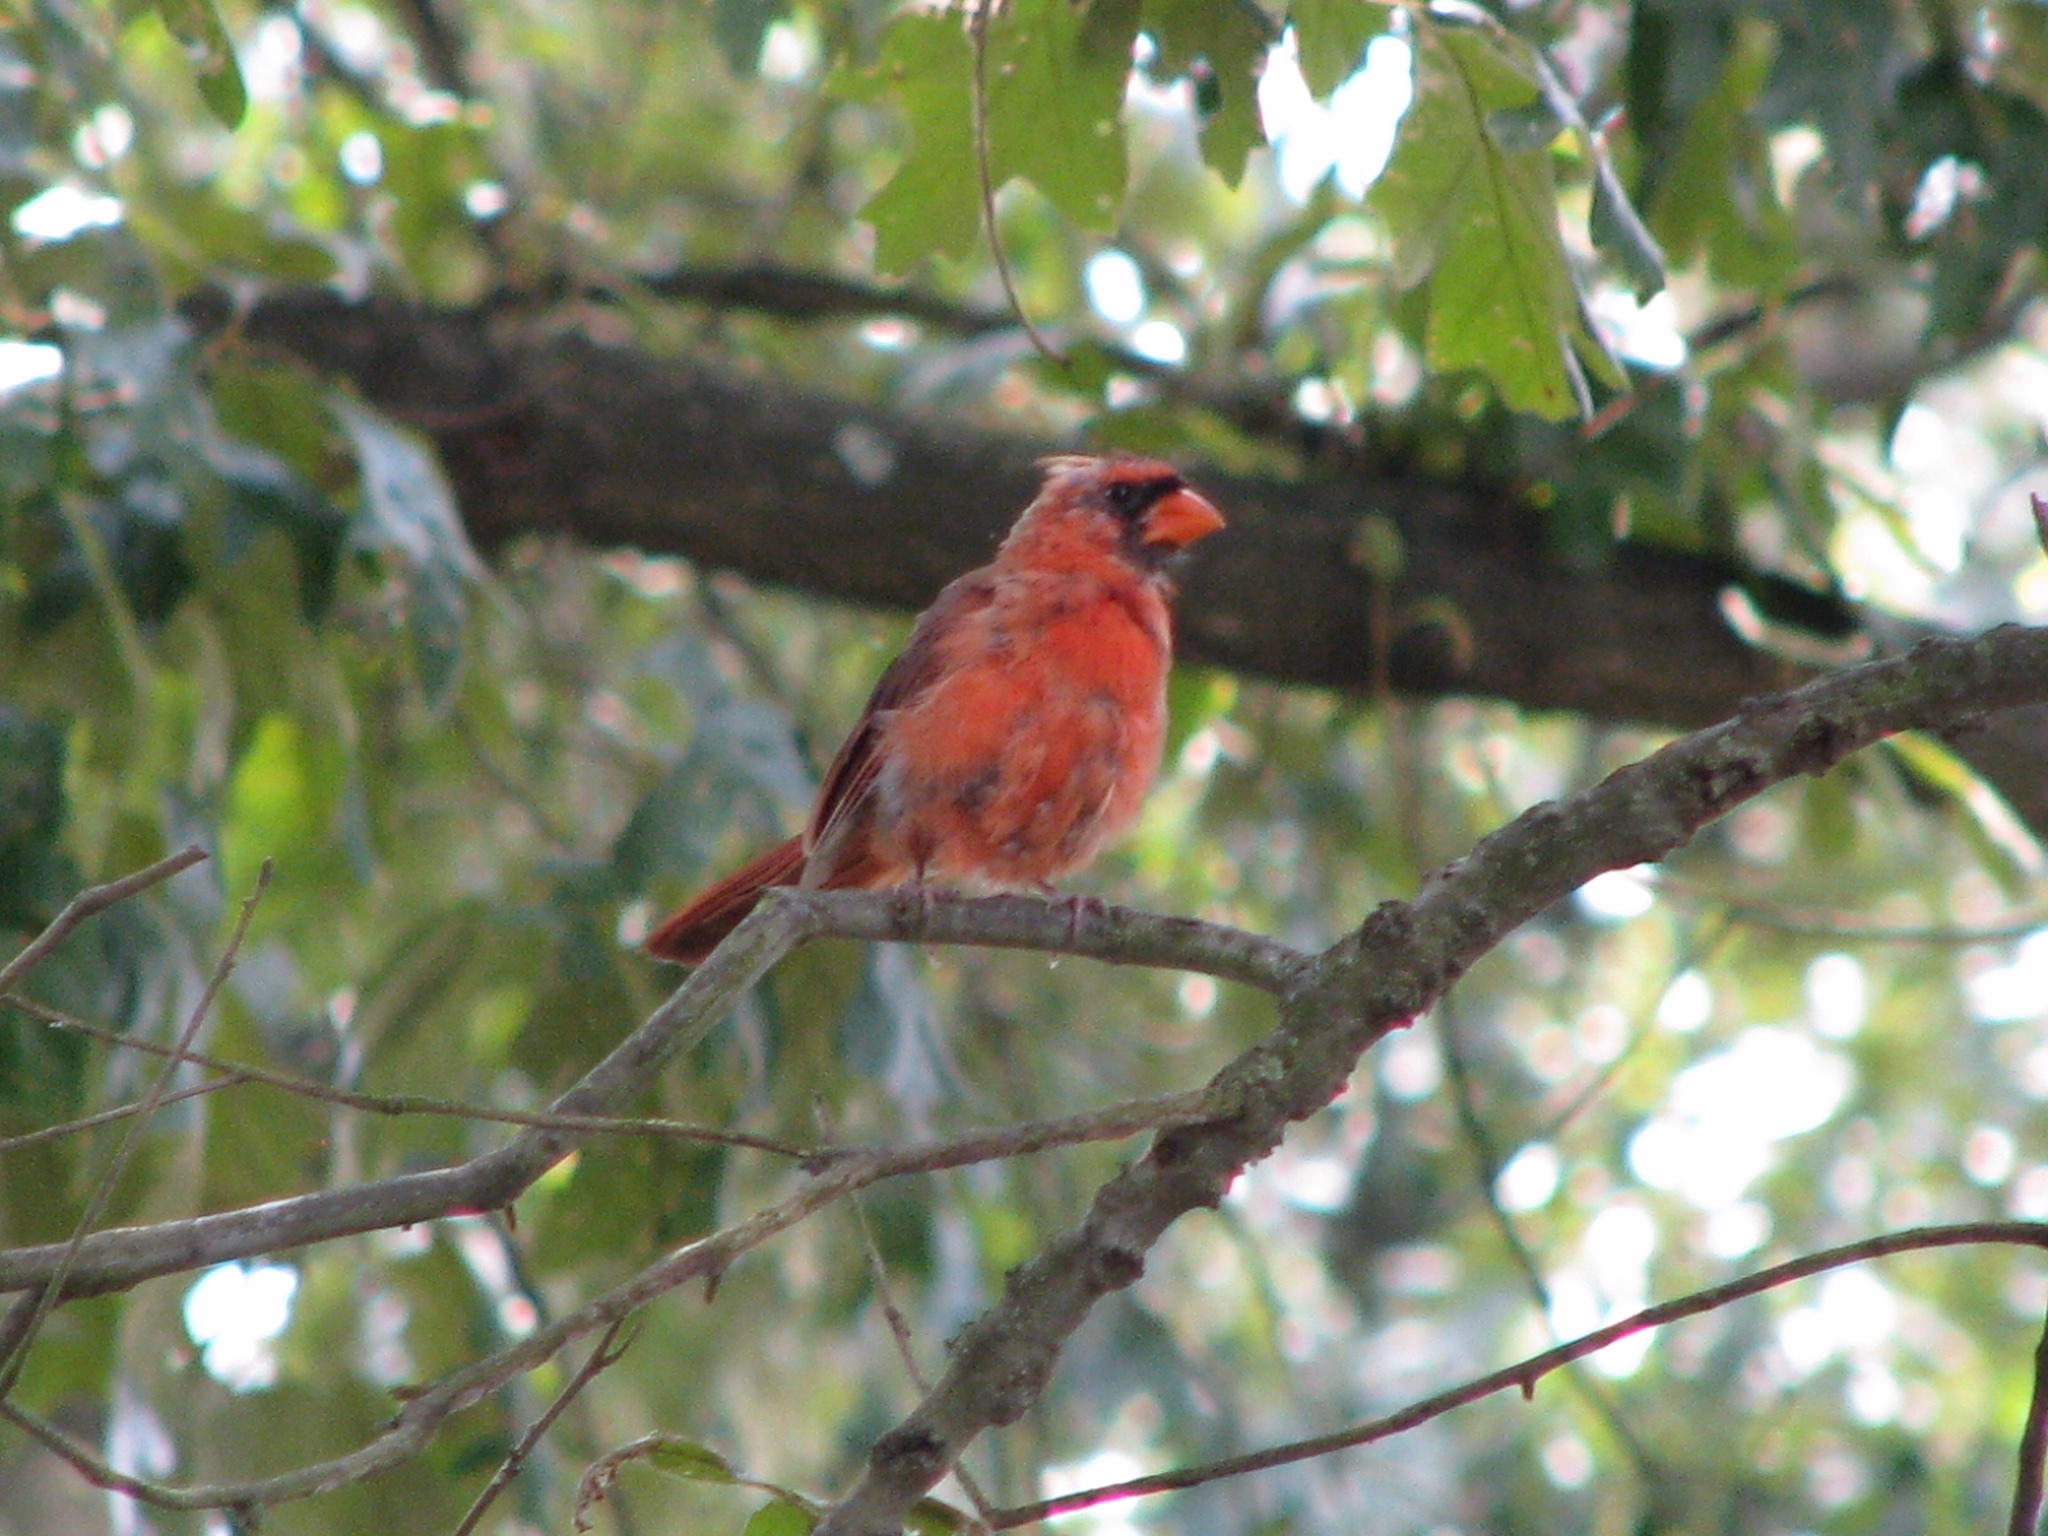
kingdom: Animalia
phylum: Chordata
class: Aves
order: Passeriformes
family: Cardinalidae
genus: Cardinalis
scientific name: Cardinalis cardinalis
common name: Northern cardinal
